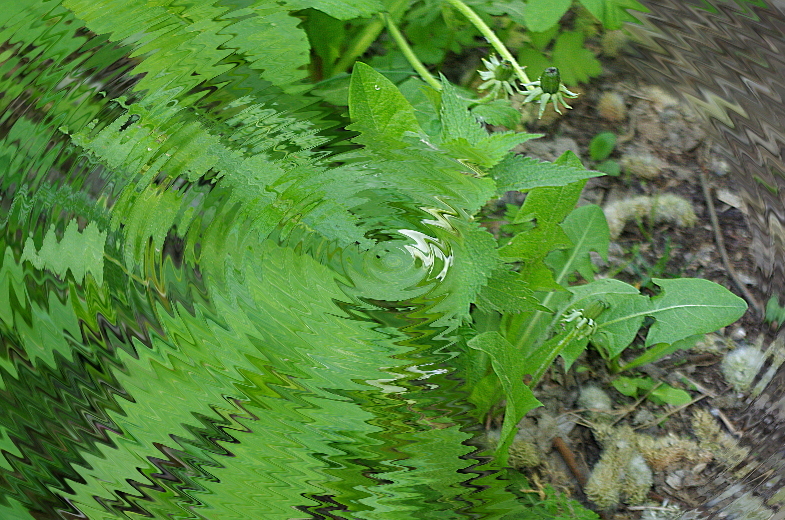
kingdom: Plantae
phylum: Tracheophyta
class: Magnoliopsida
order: Asterales
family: Asteraceae
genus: Taraxacum
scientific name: Taraxacum officinale
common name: Common dandelion
